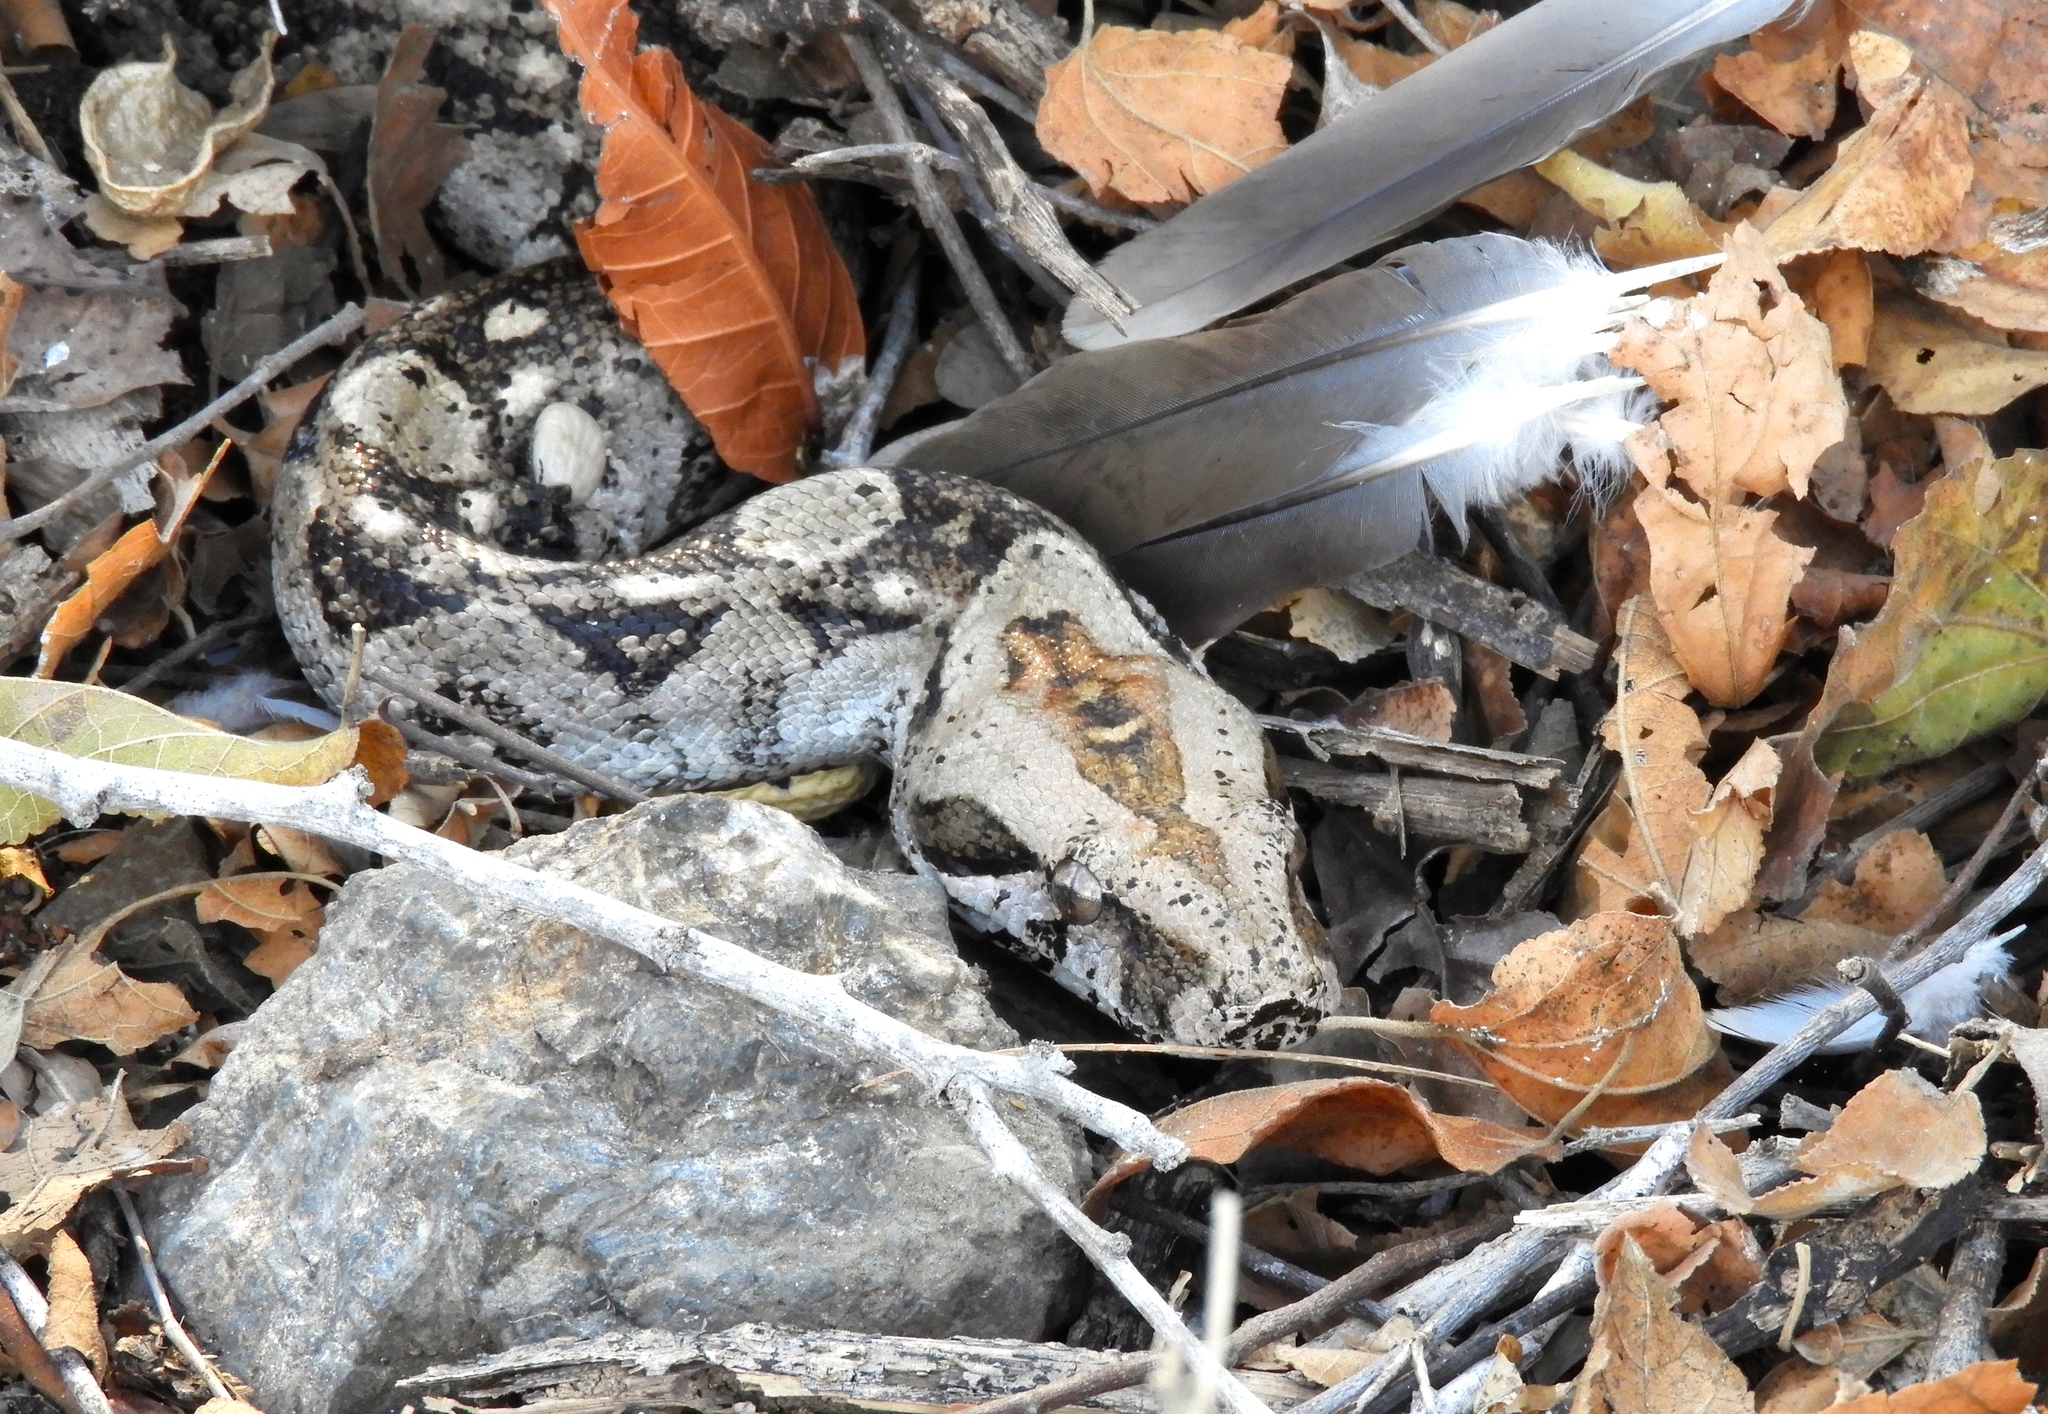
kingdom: Animalia
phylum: Chordata
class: Squamata
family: Boidae
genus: Boa
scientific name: Boa
